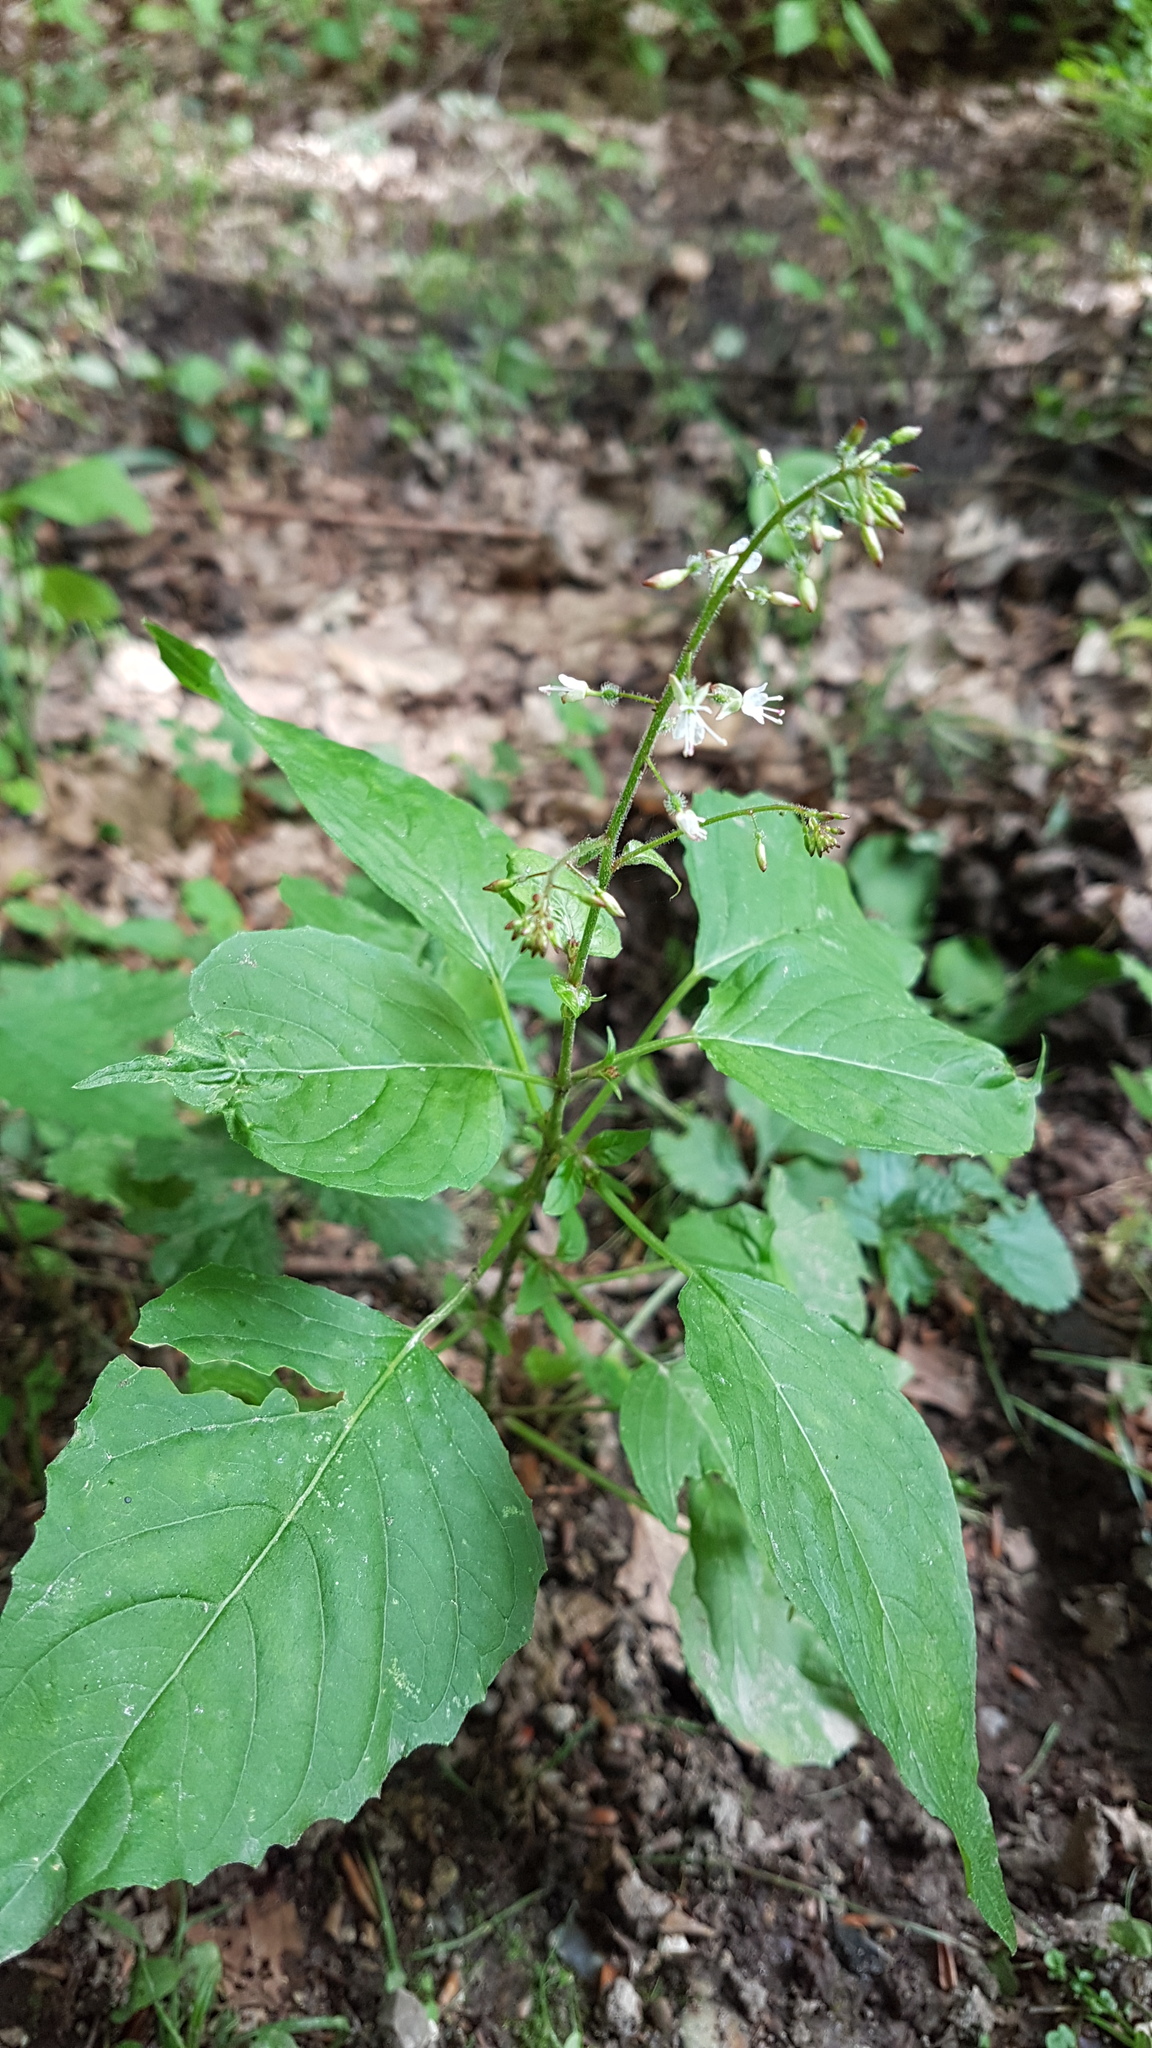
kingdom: Plantae
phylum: Tracheophyta
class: Magnoliopsida
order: Myrtales
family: Onagraceae
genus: Circaea
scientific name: Circaea lutetiana
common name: Enchanter's-nightshade
